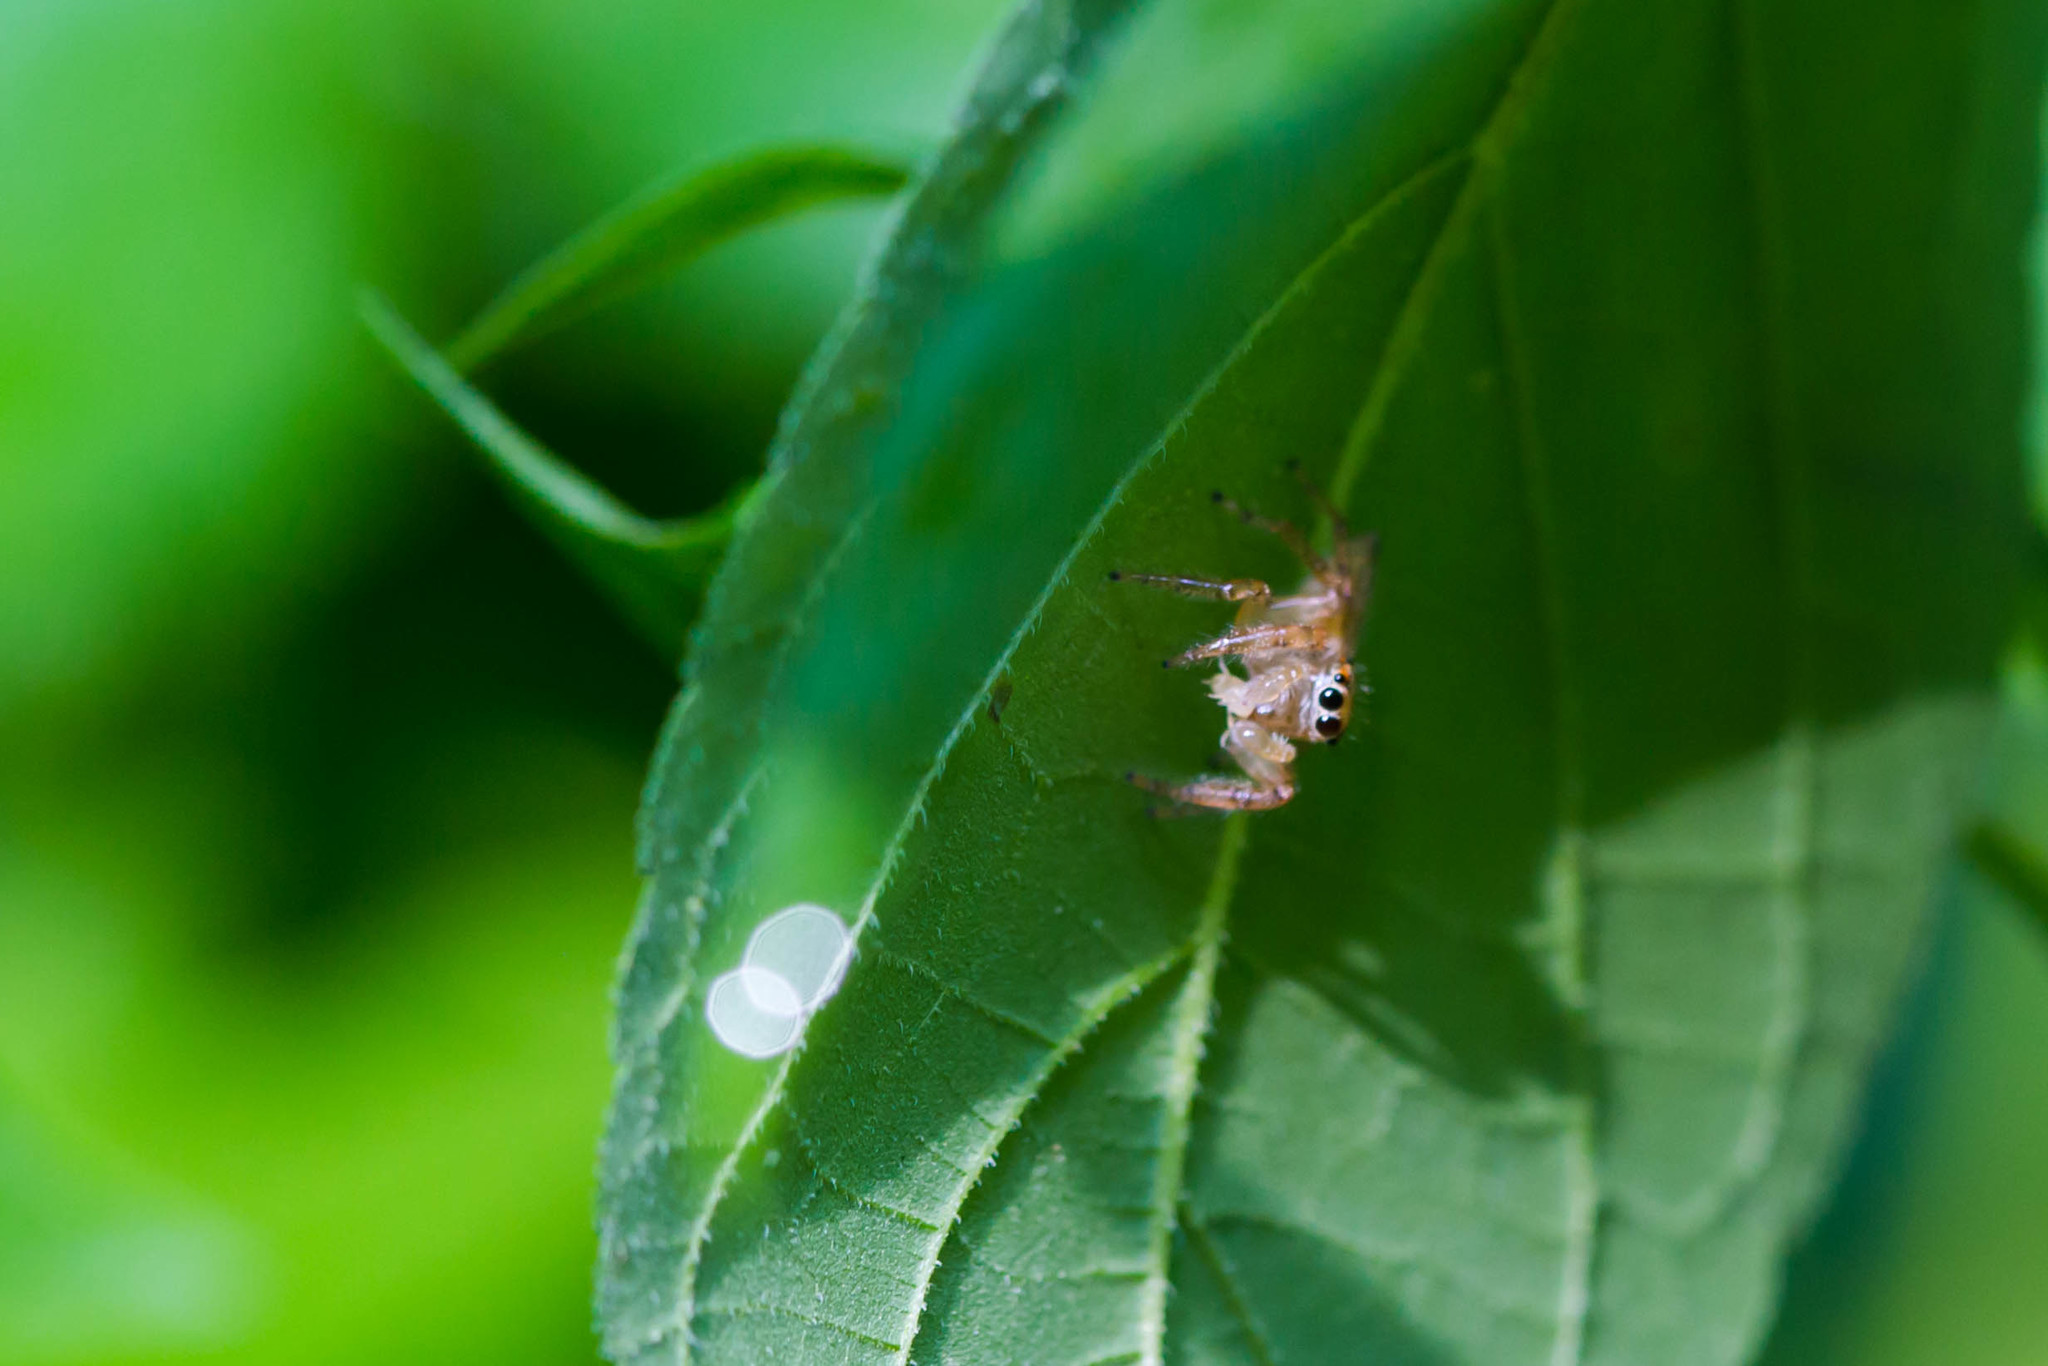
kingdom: Animalia
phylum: Arthropoda
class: Arachnida
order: Araneae
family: Salticidae
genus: Colonus
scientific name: Colonus sylvanus
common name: Jumping spiders
